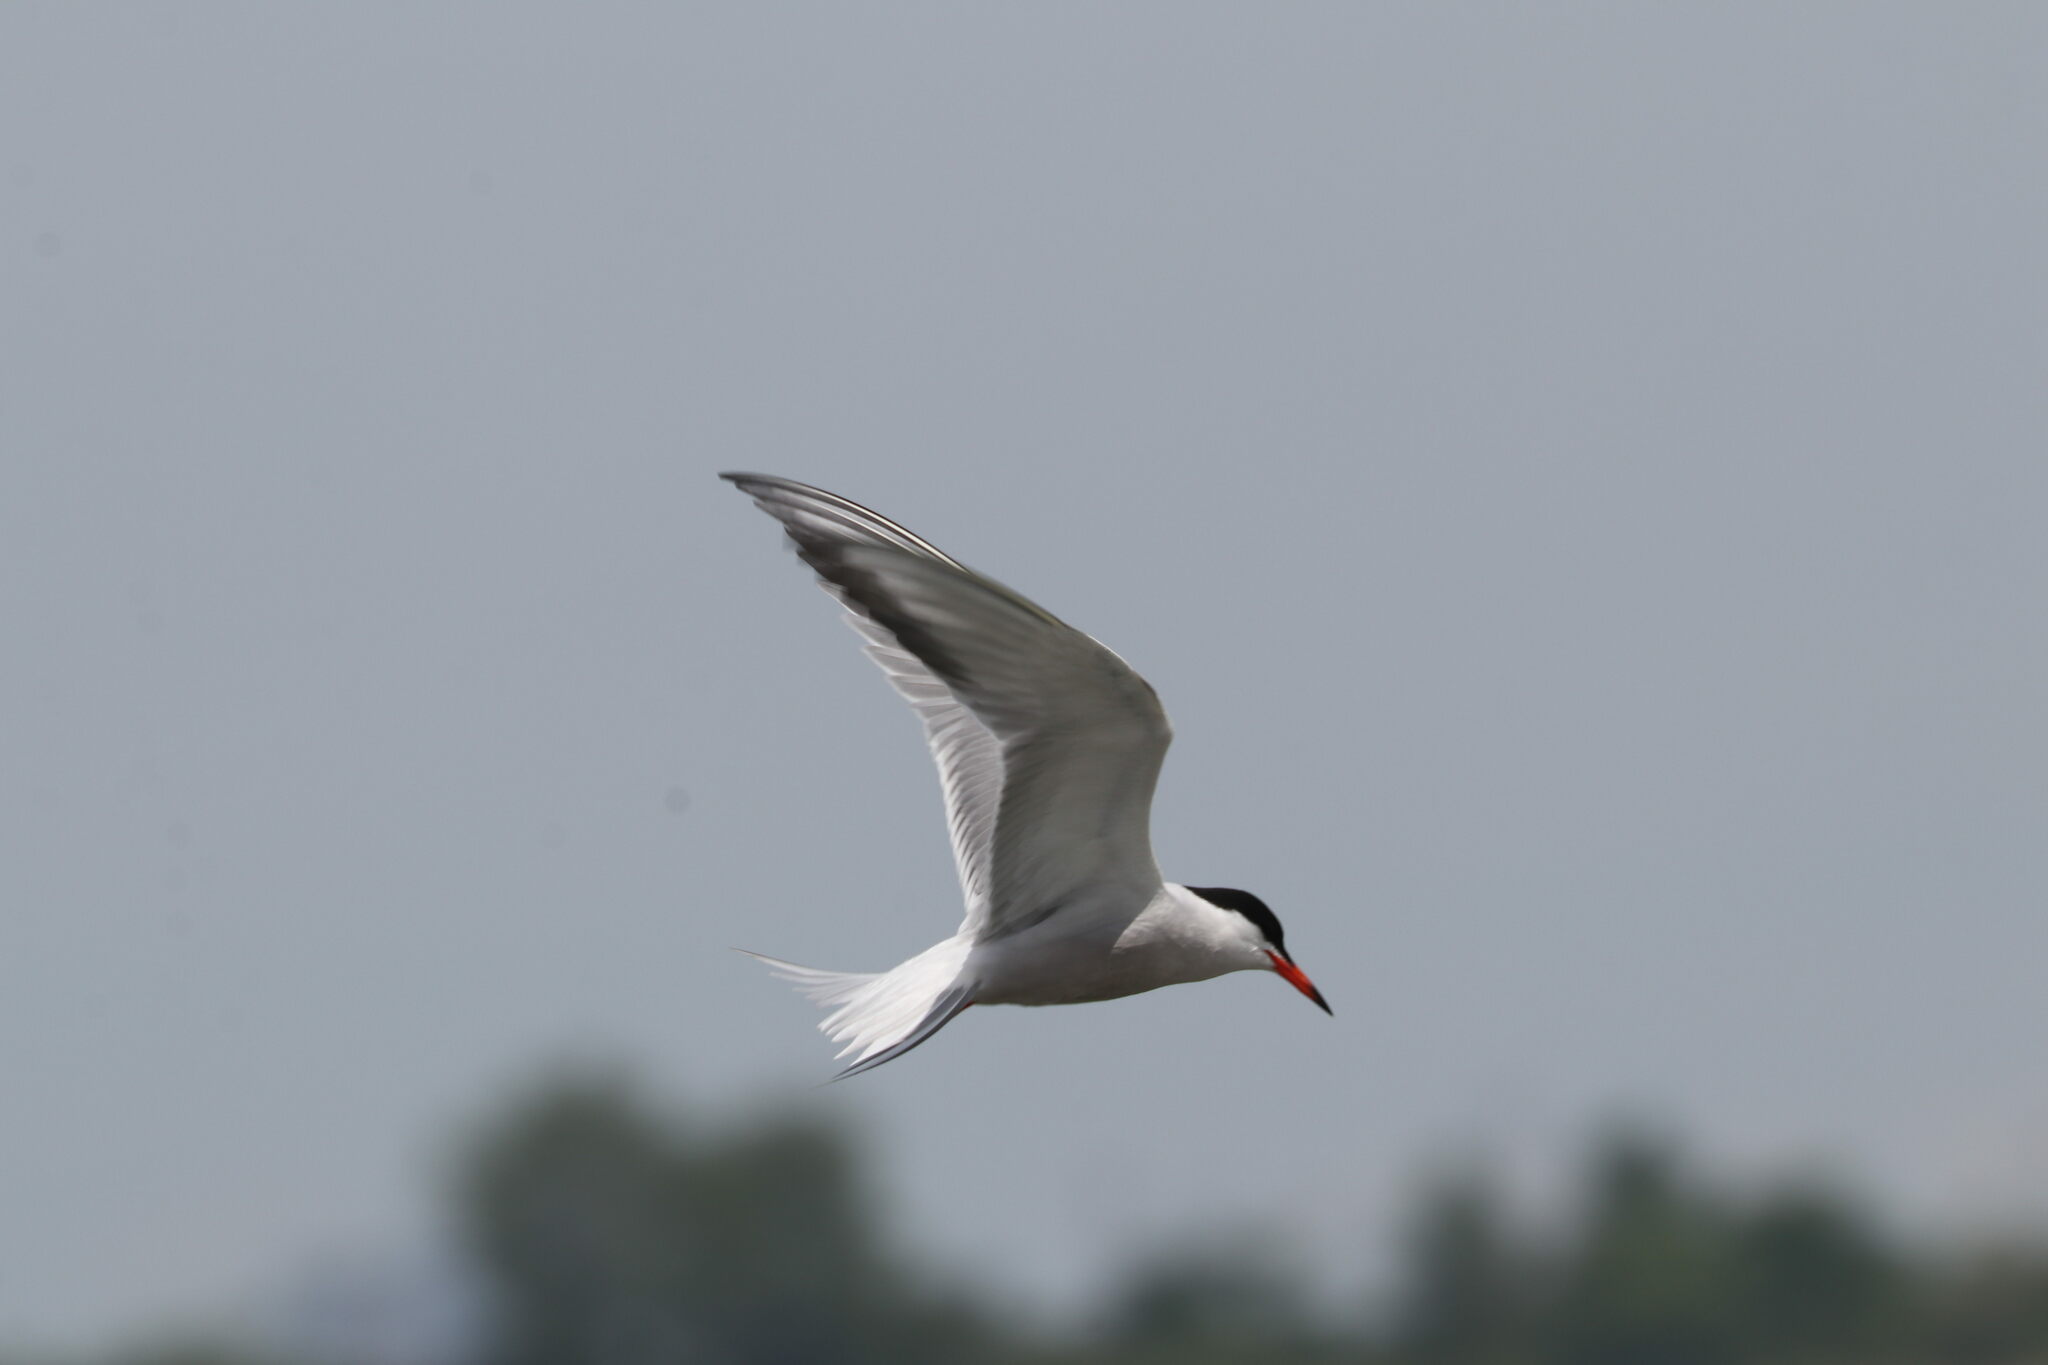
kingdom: Animalia
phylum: Chordata
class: Aves
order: Charadriiformes
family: Laridae
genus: Sterna
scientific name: Sterna hirundo
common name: Common tern
